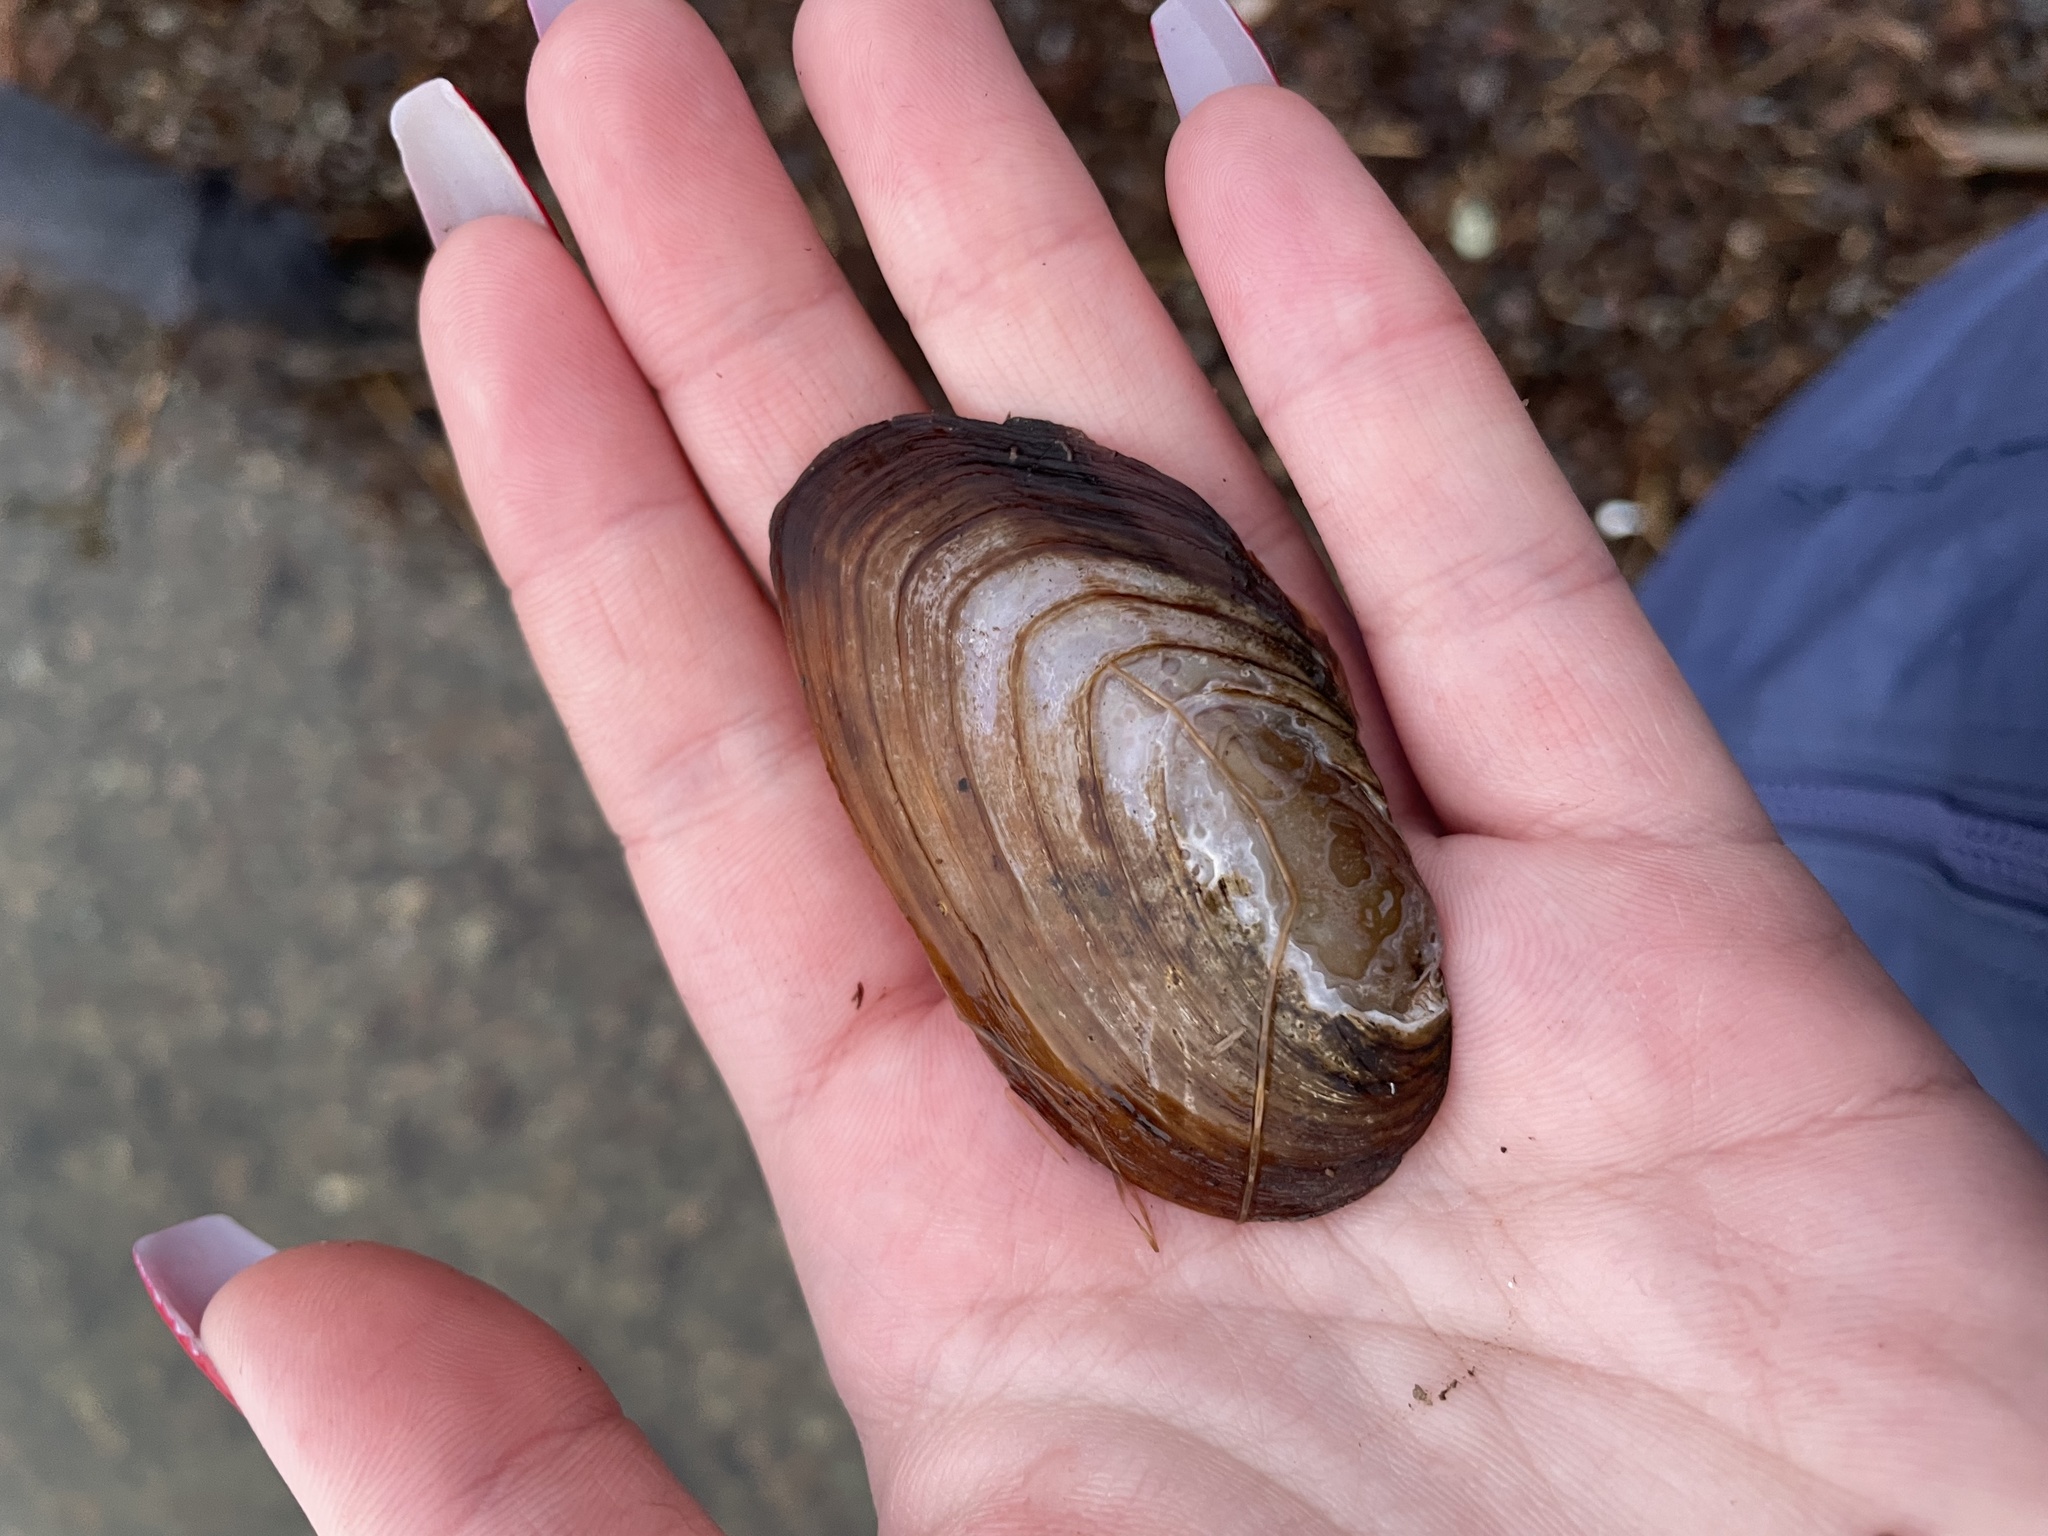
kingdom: Animalia
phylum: Mollusca
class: Bivalvia
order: Unionida
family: Unionidae
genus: Elliptio
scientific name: Elliptio complanata
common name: Eastern elliptio
